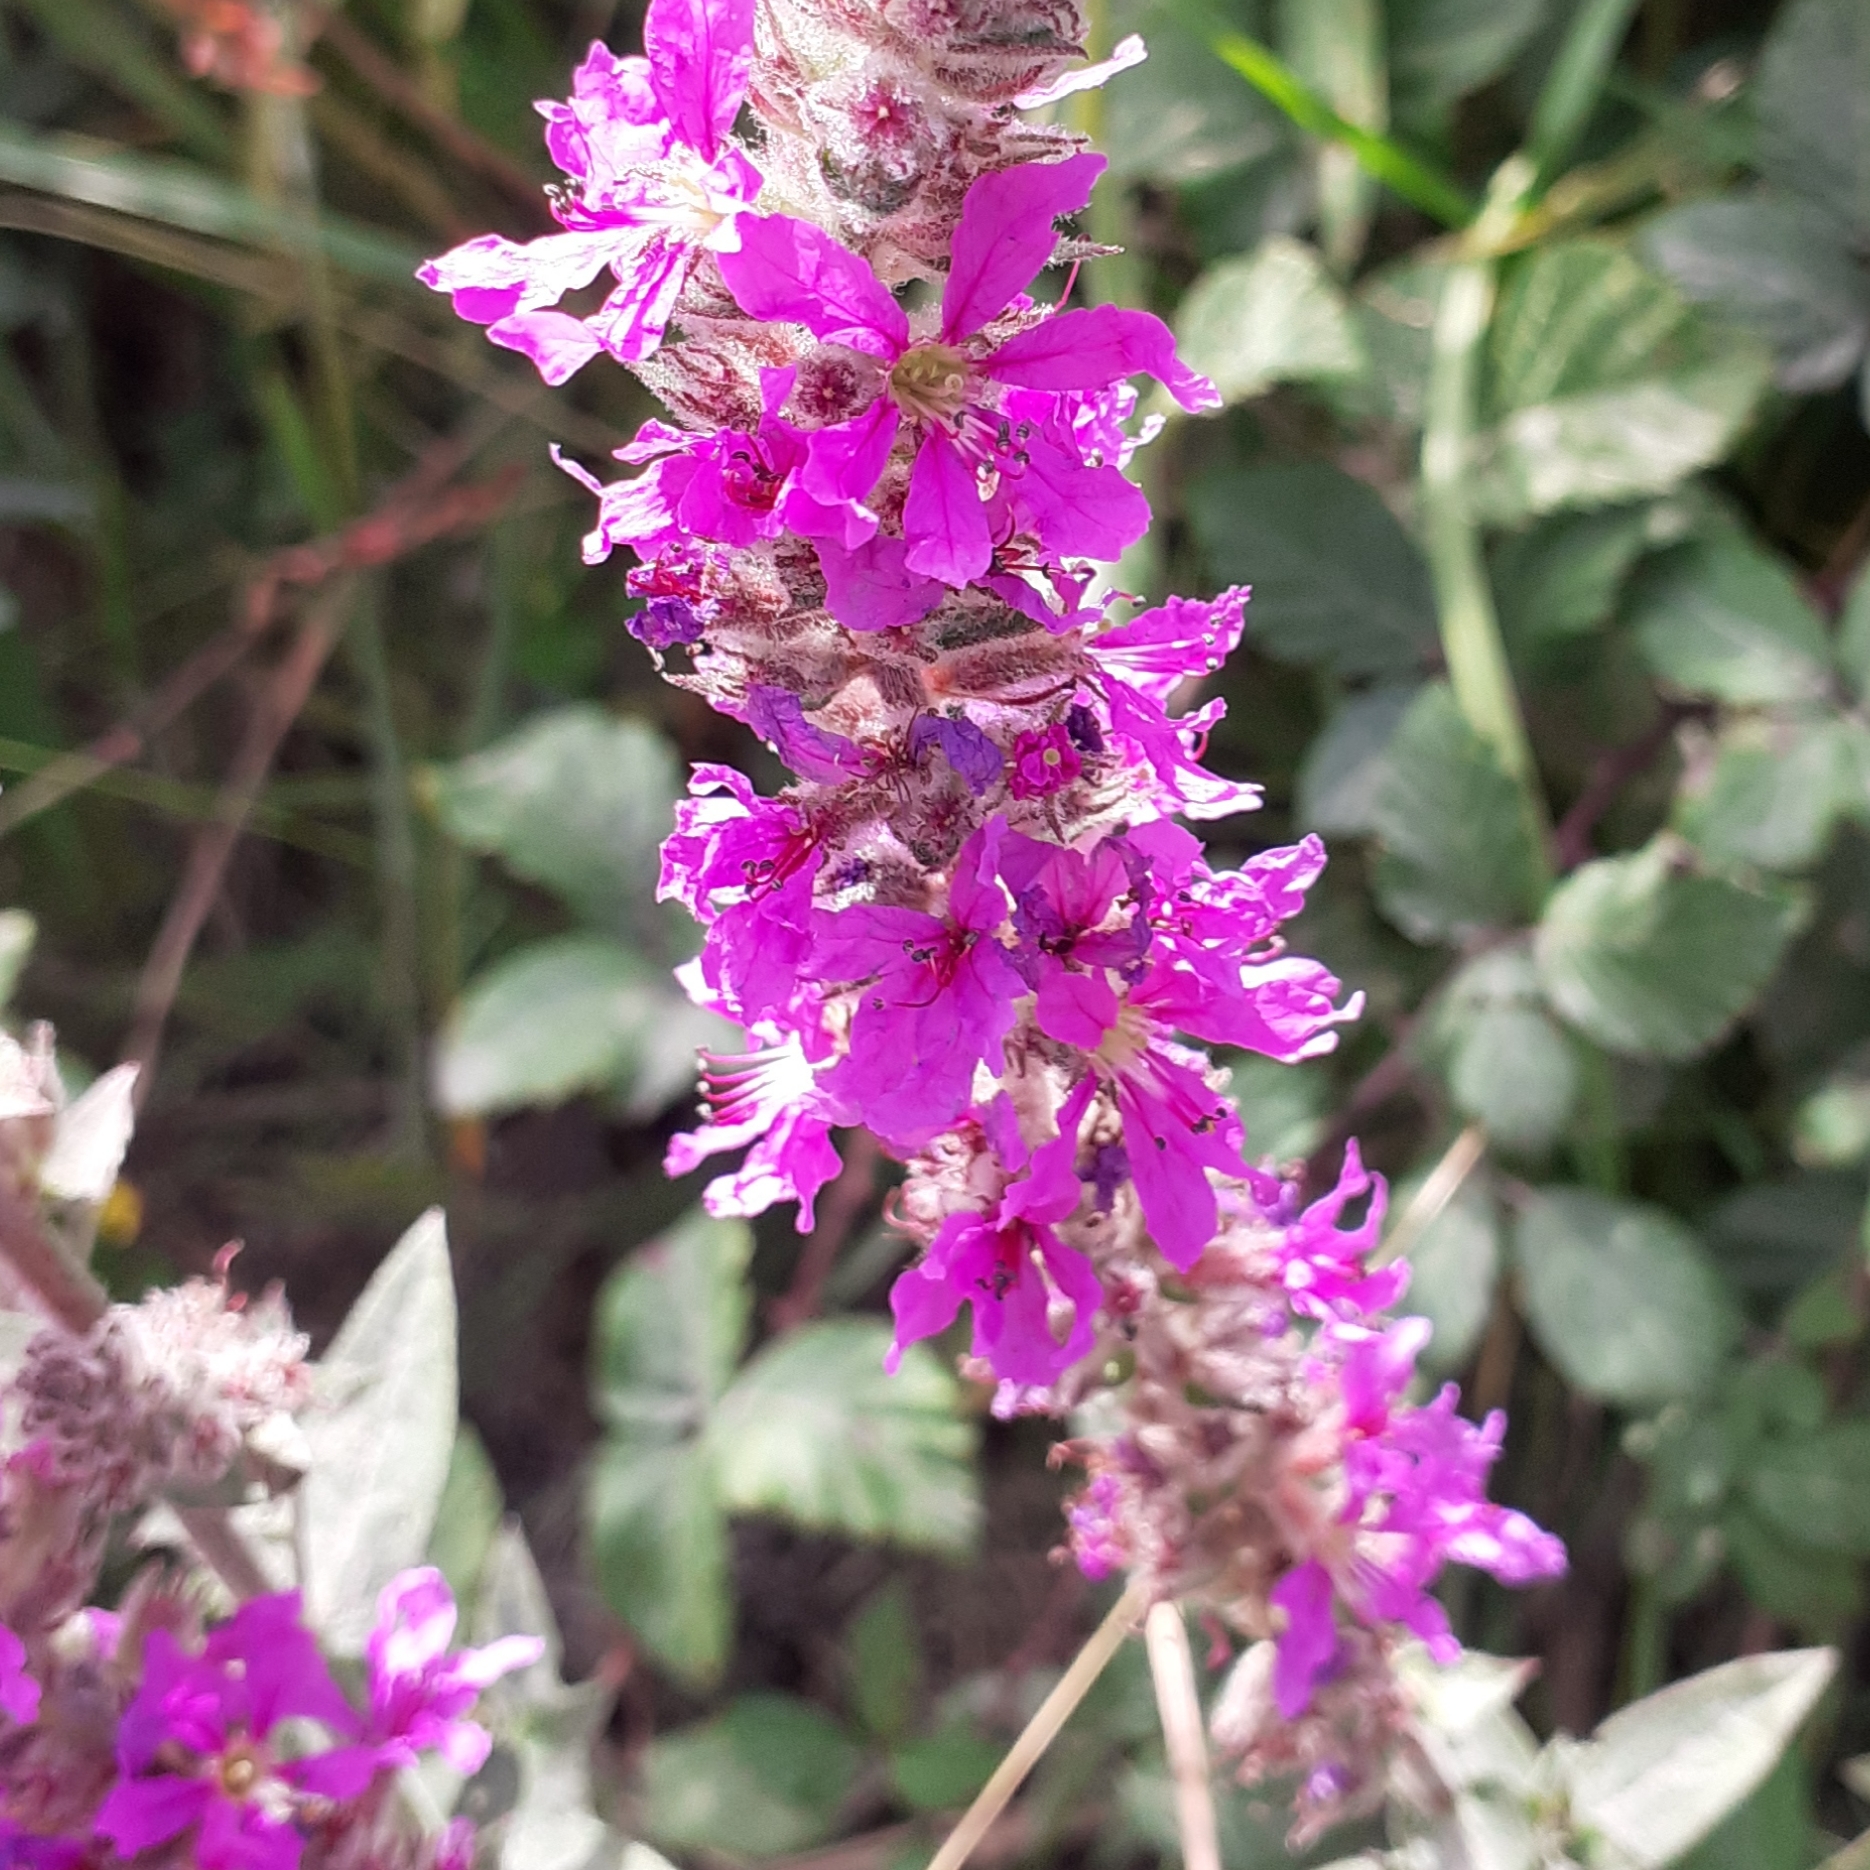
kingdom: Plantae
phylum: Tracheophyta
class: Magnoliopsida
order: Myrtales
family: Lythraceae
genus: Lythrum
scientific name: Lythrum salicaria
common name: Purple loosestrife
